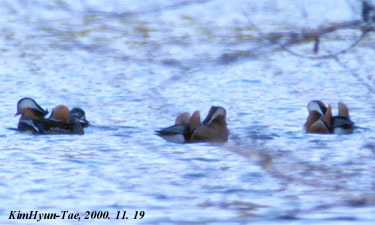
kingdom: Animalia
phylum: Chordata
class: Aves
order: Anseriformes
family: Anatidae
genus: Aix
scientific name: Aix galericulata
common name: Mandarin duck
